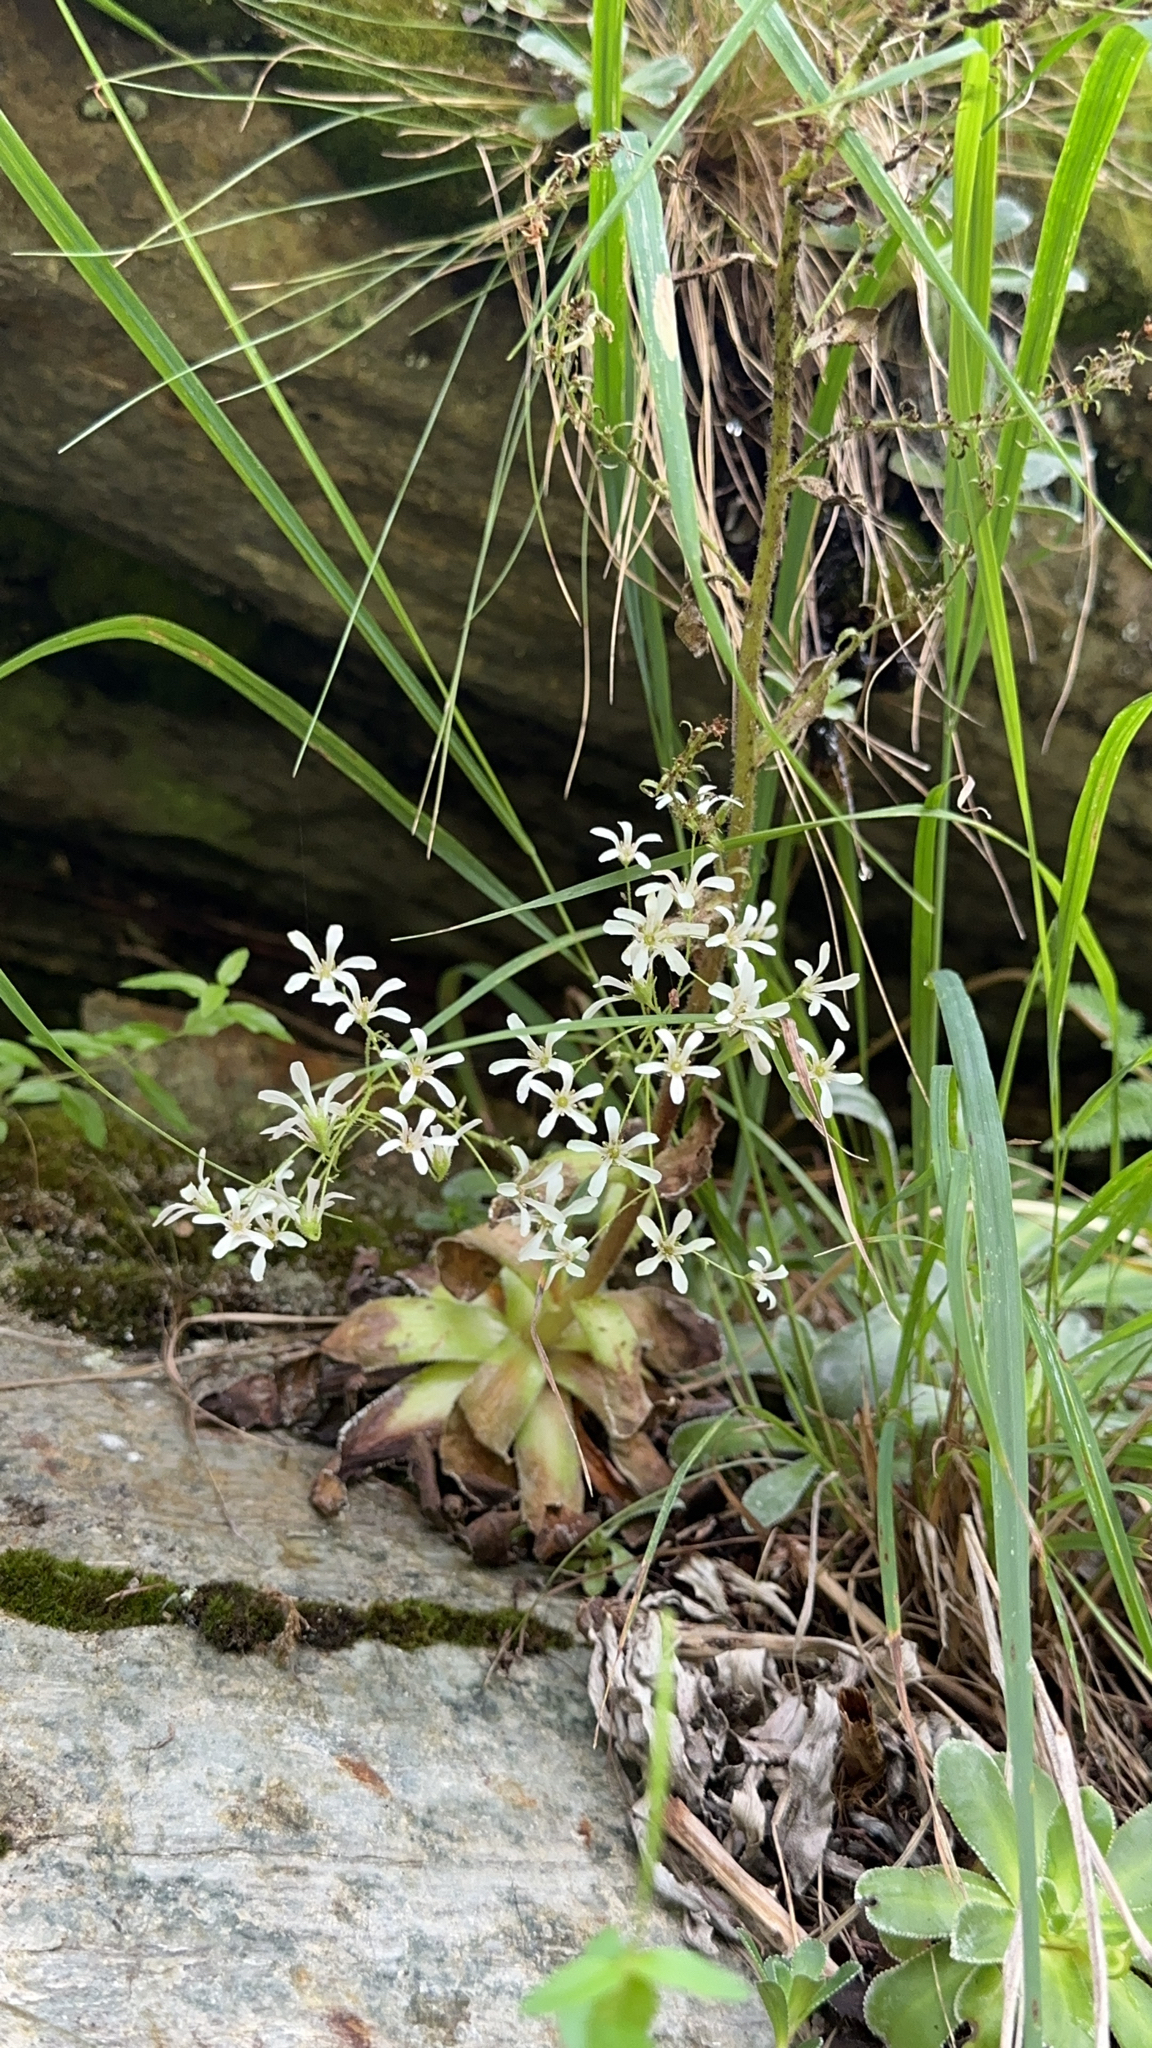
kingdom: Plantae
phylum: Tracheophyta
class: Magnoliopsida
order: Saxifragales
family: Saxifragaceae
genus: Saxifraga
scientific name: Saxifraga cotyledon
